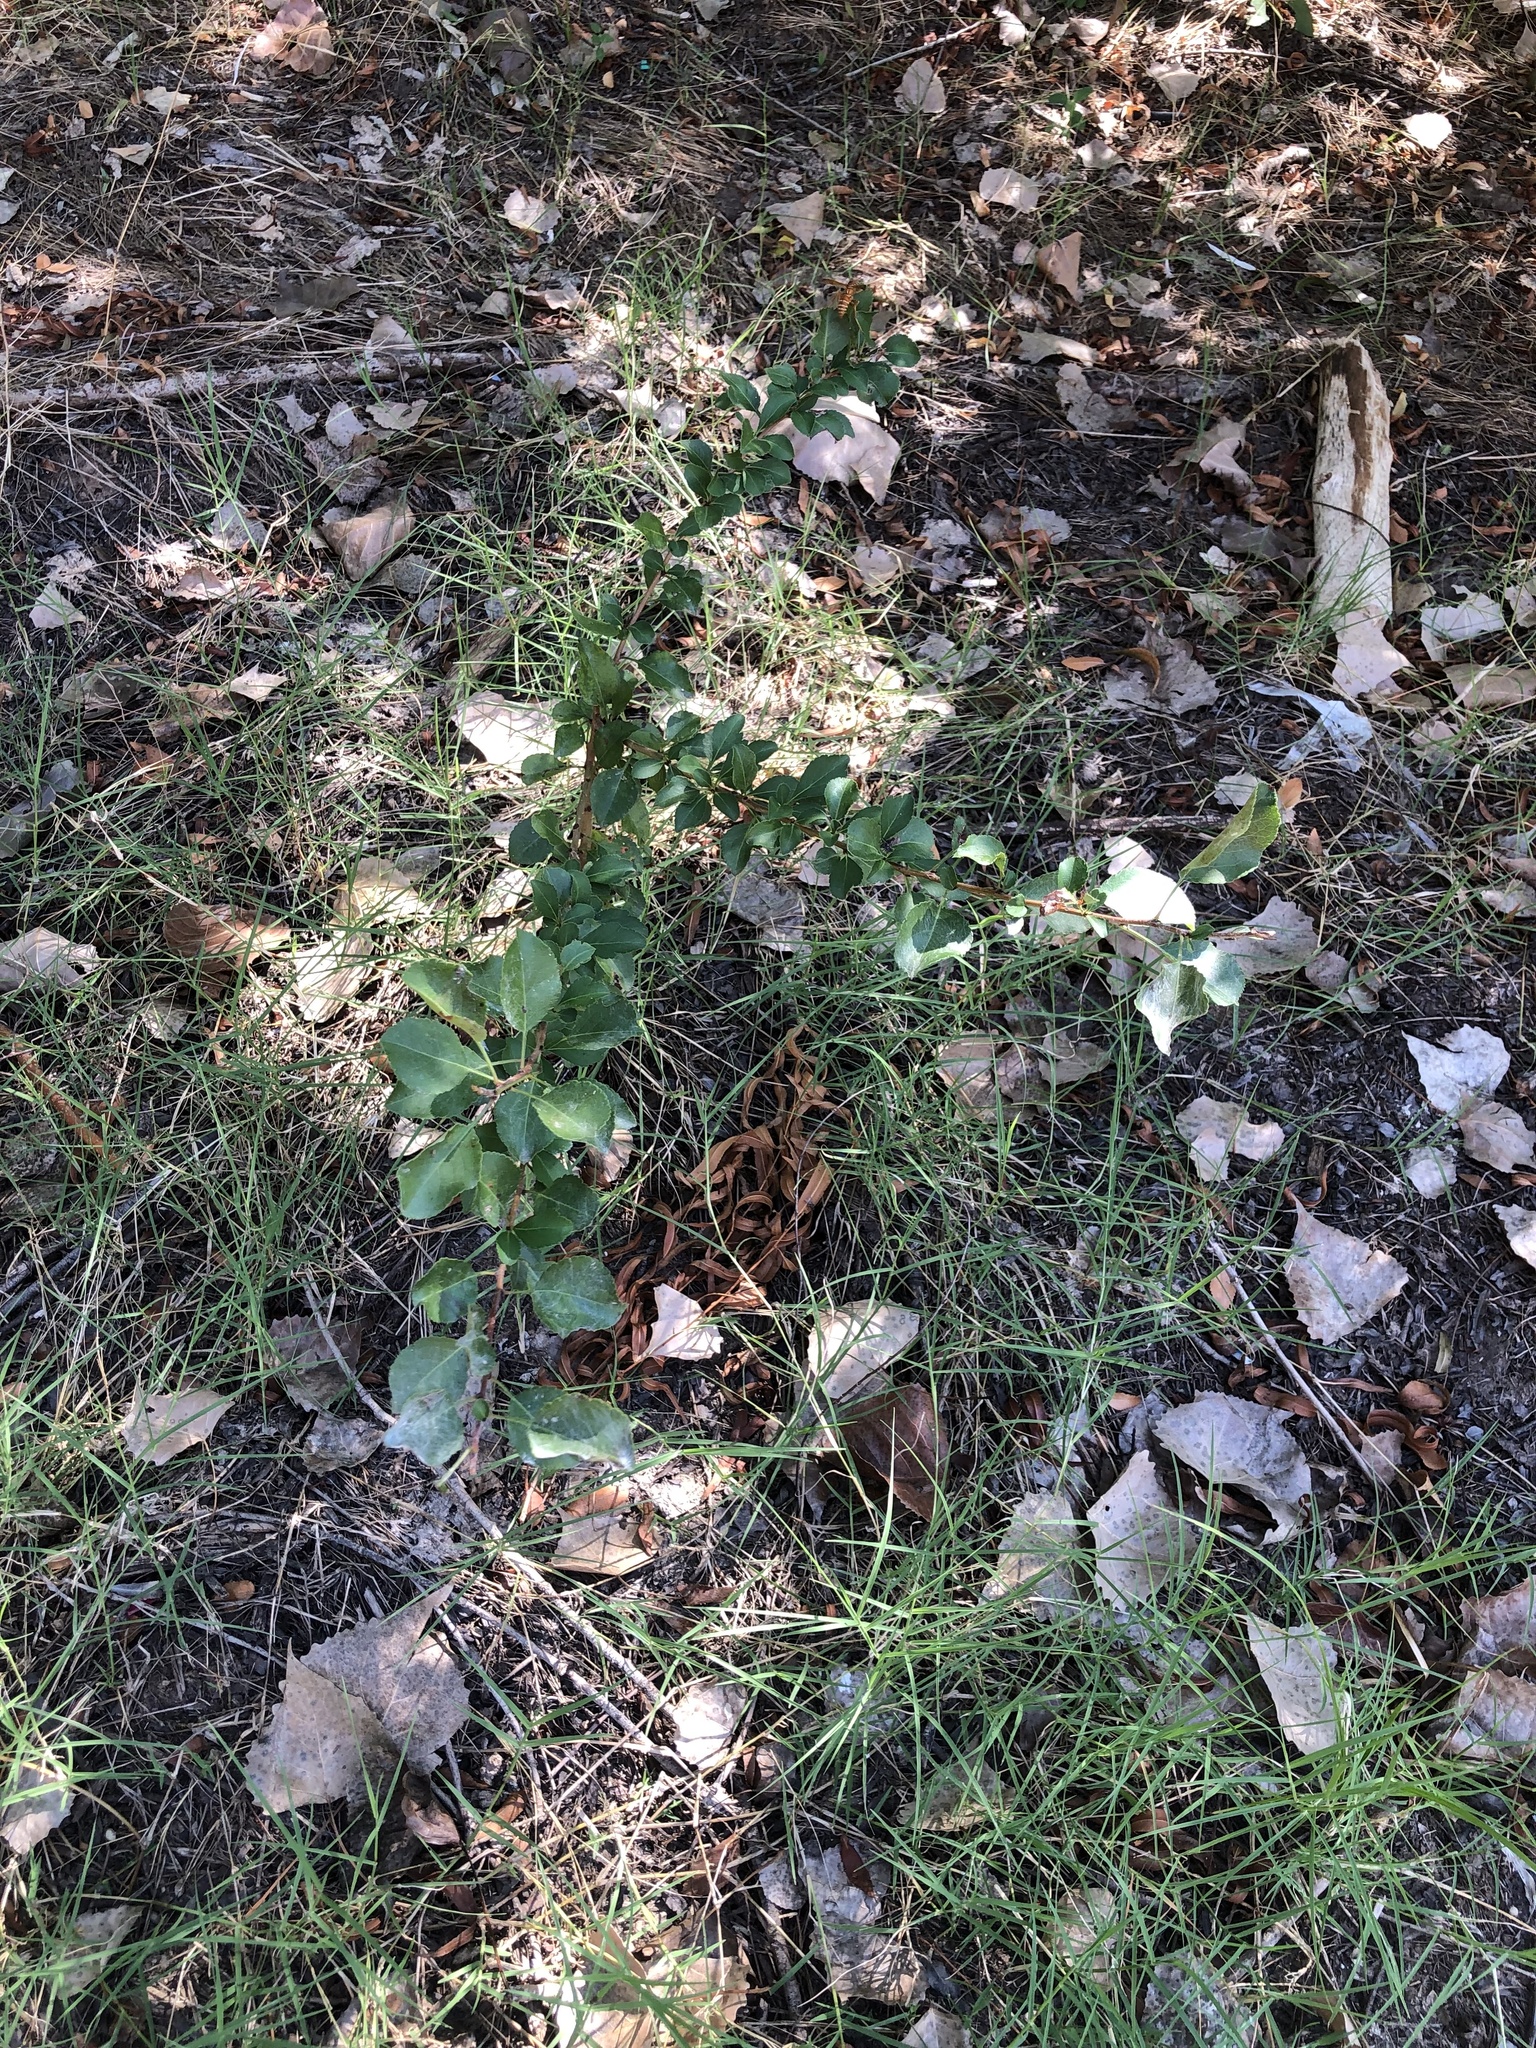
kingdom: Plantae
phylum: Tracheophyta
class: Magnoliopsida
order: Rosales
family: Rosaceae
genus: Pyrus
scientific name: Pyrus calleryana
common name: Callery pear
